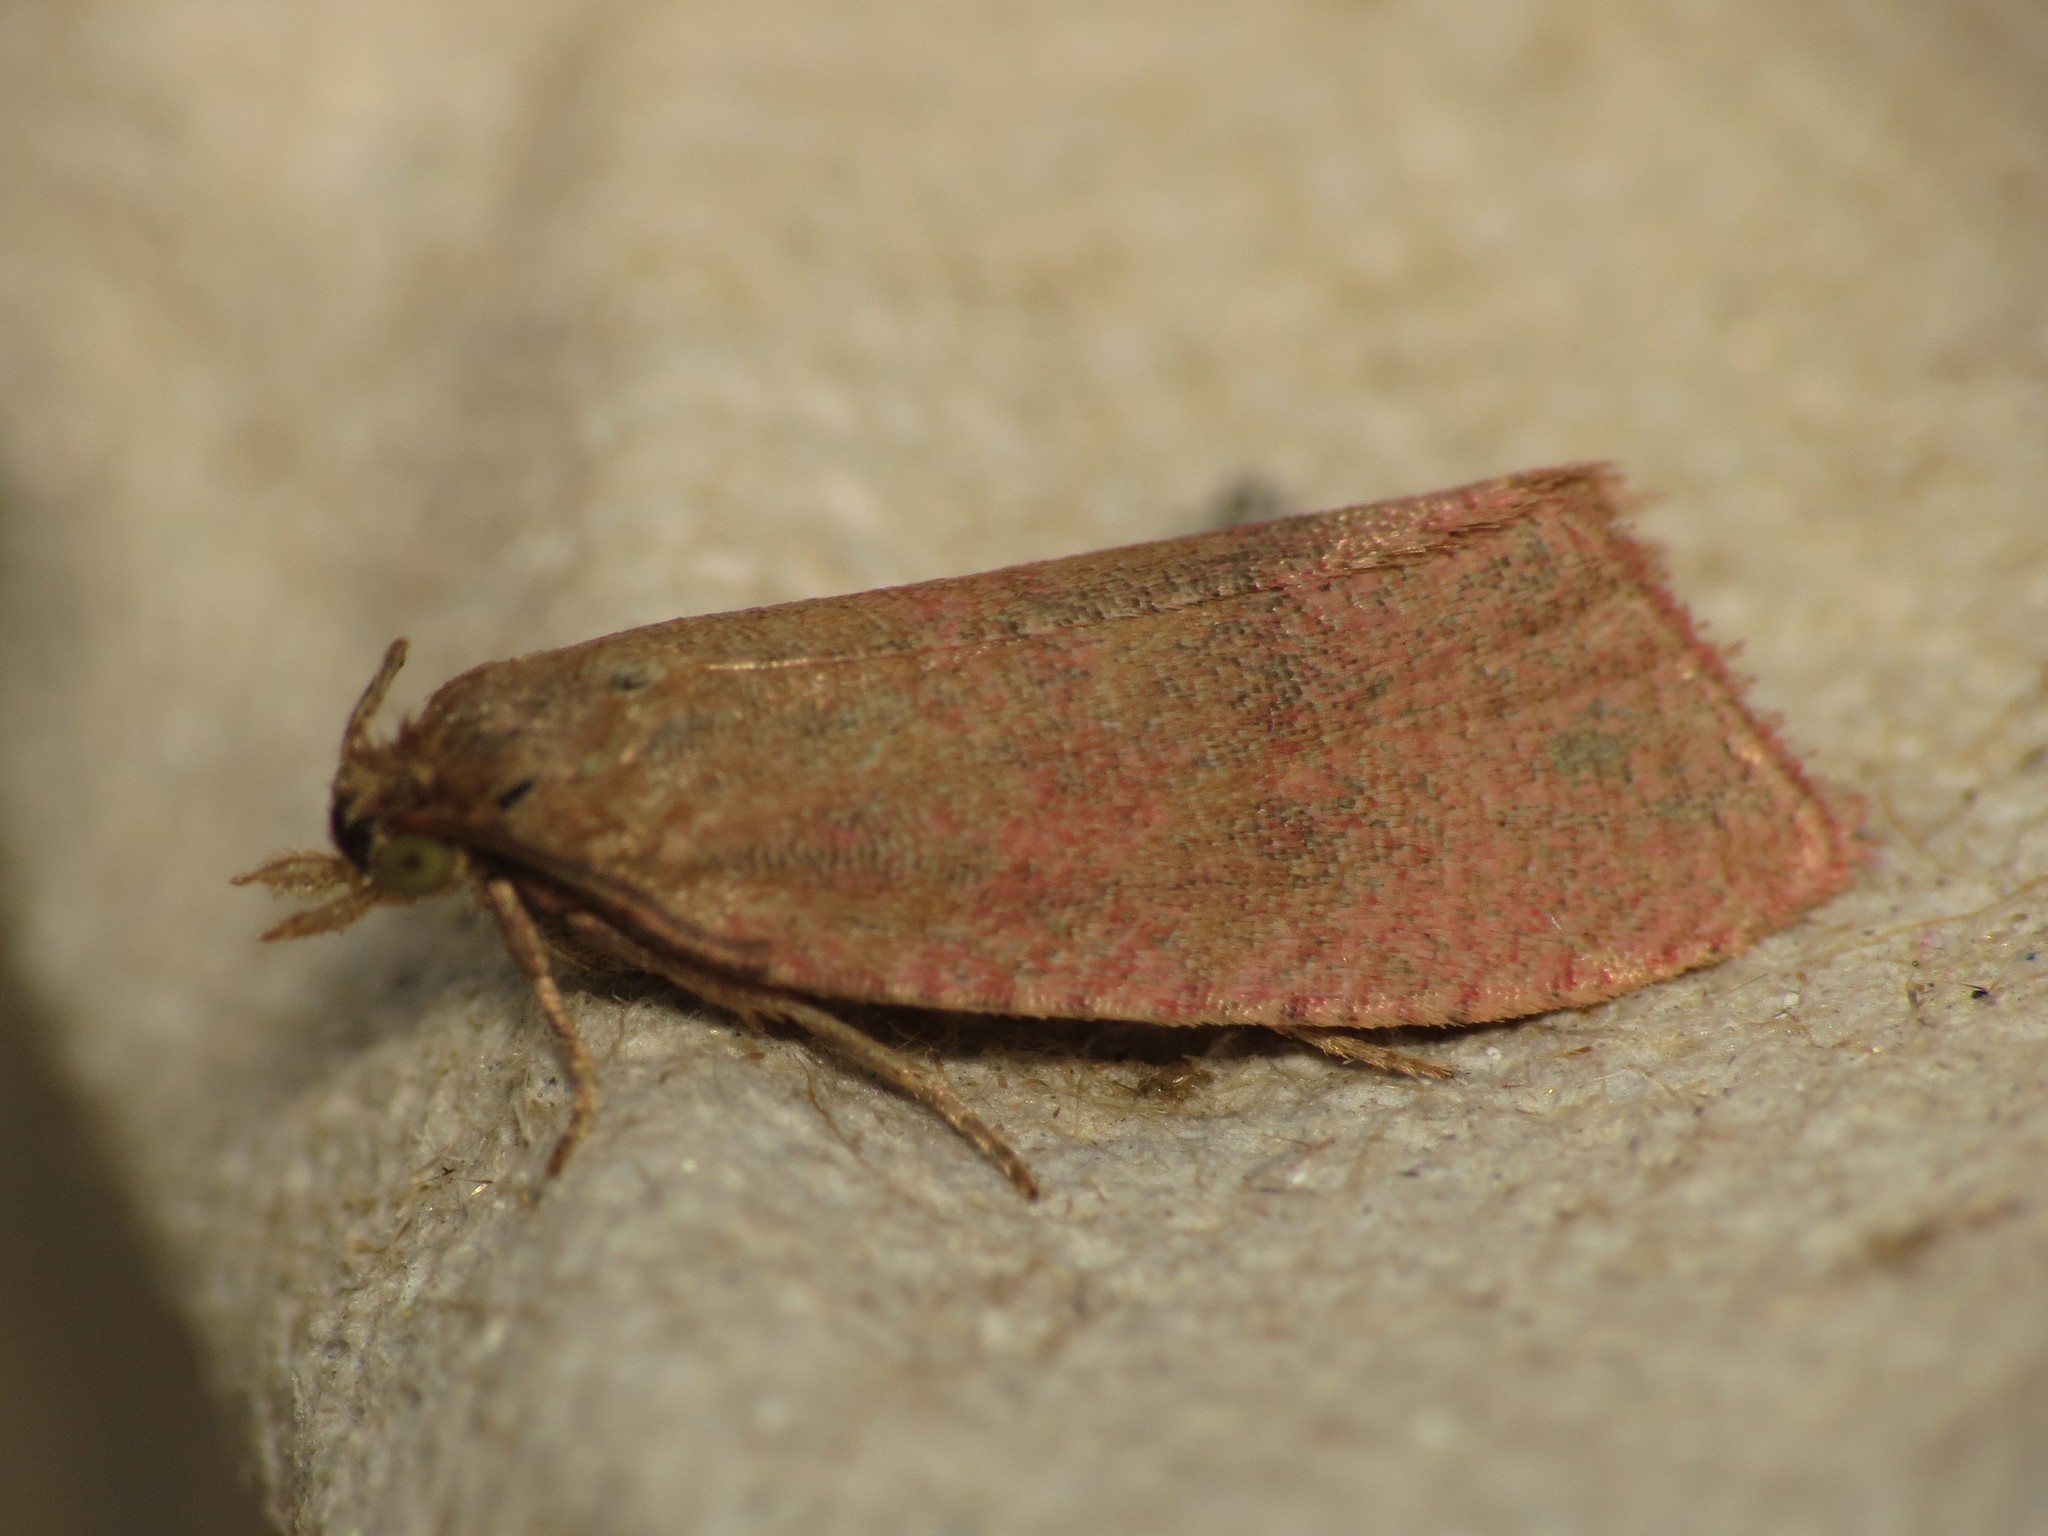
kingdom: Animalia
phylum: Arthropoda
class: Insecta
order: Lepidoptera
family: Tortricidae
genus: Celypha
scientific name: Celypha rufana
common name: Lakes marble
